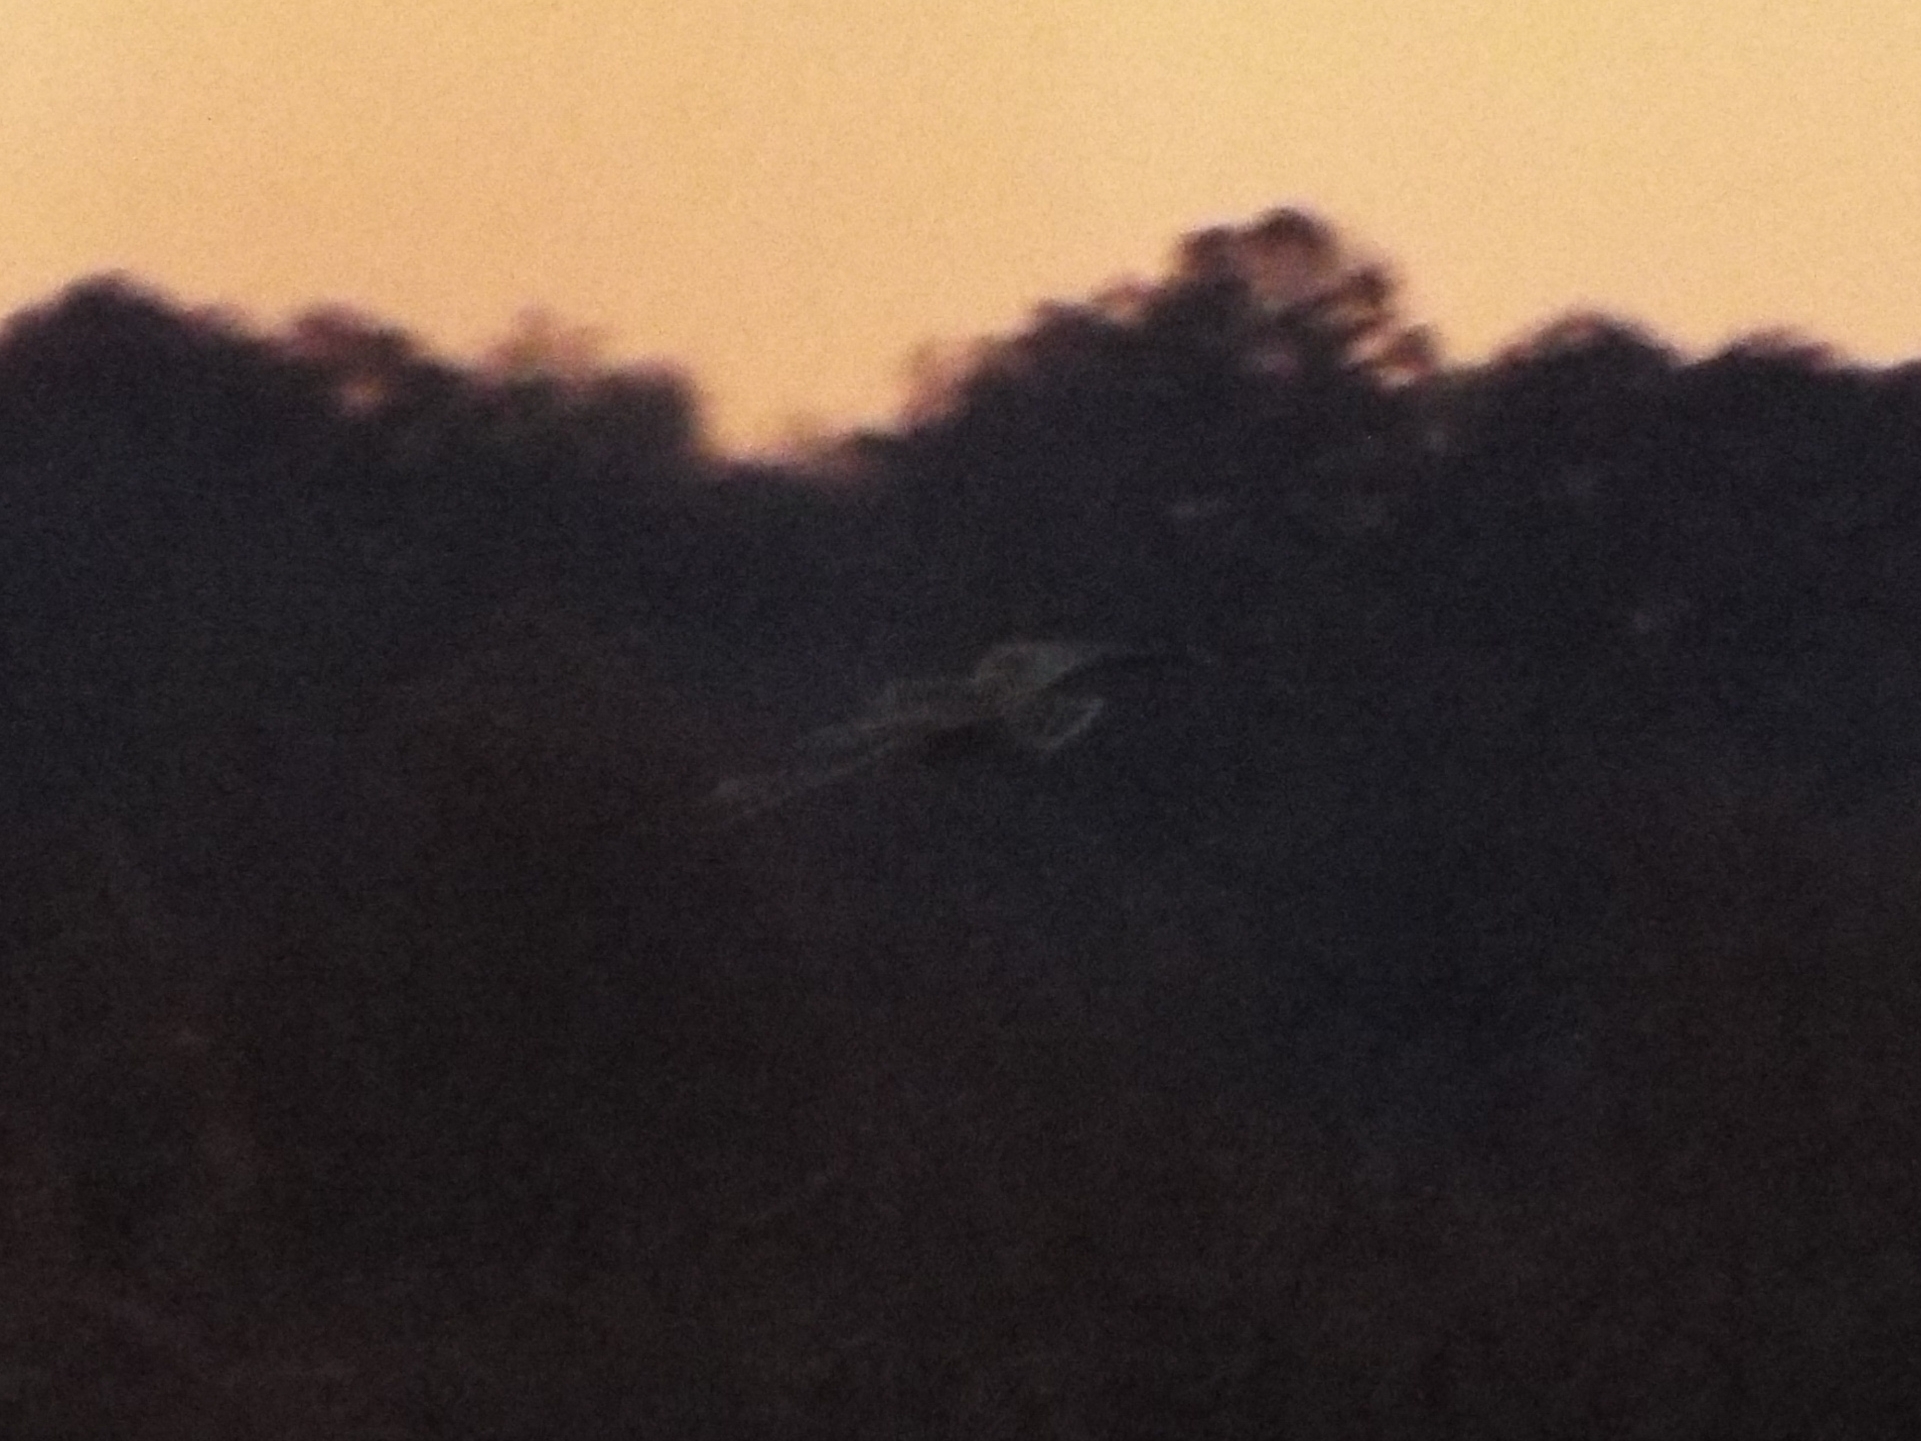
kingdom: Animalia
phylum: Chordata
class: Aves
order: Strigiformes
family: Strigidae
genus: Asio
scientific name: Asio flammeus
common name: Short-eared owl
